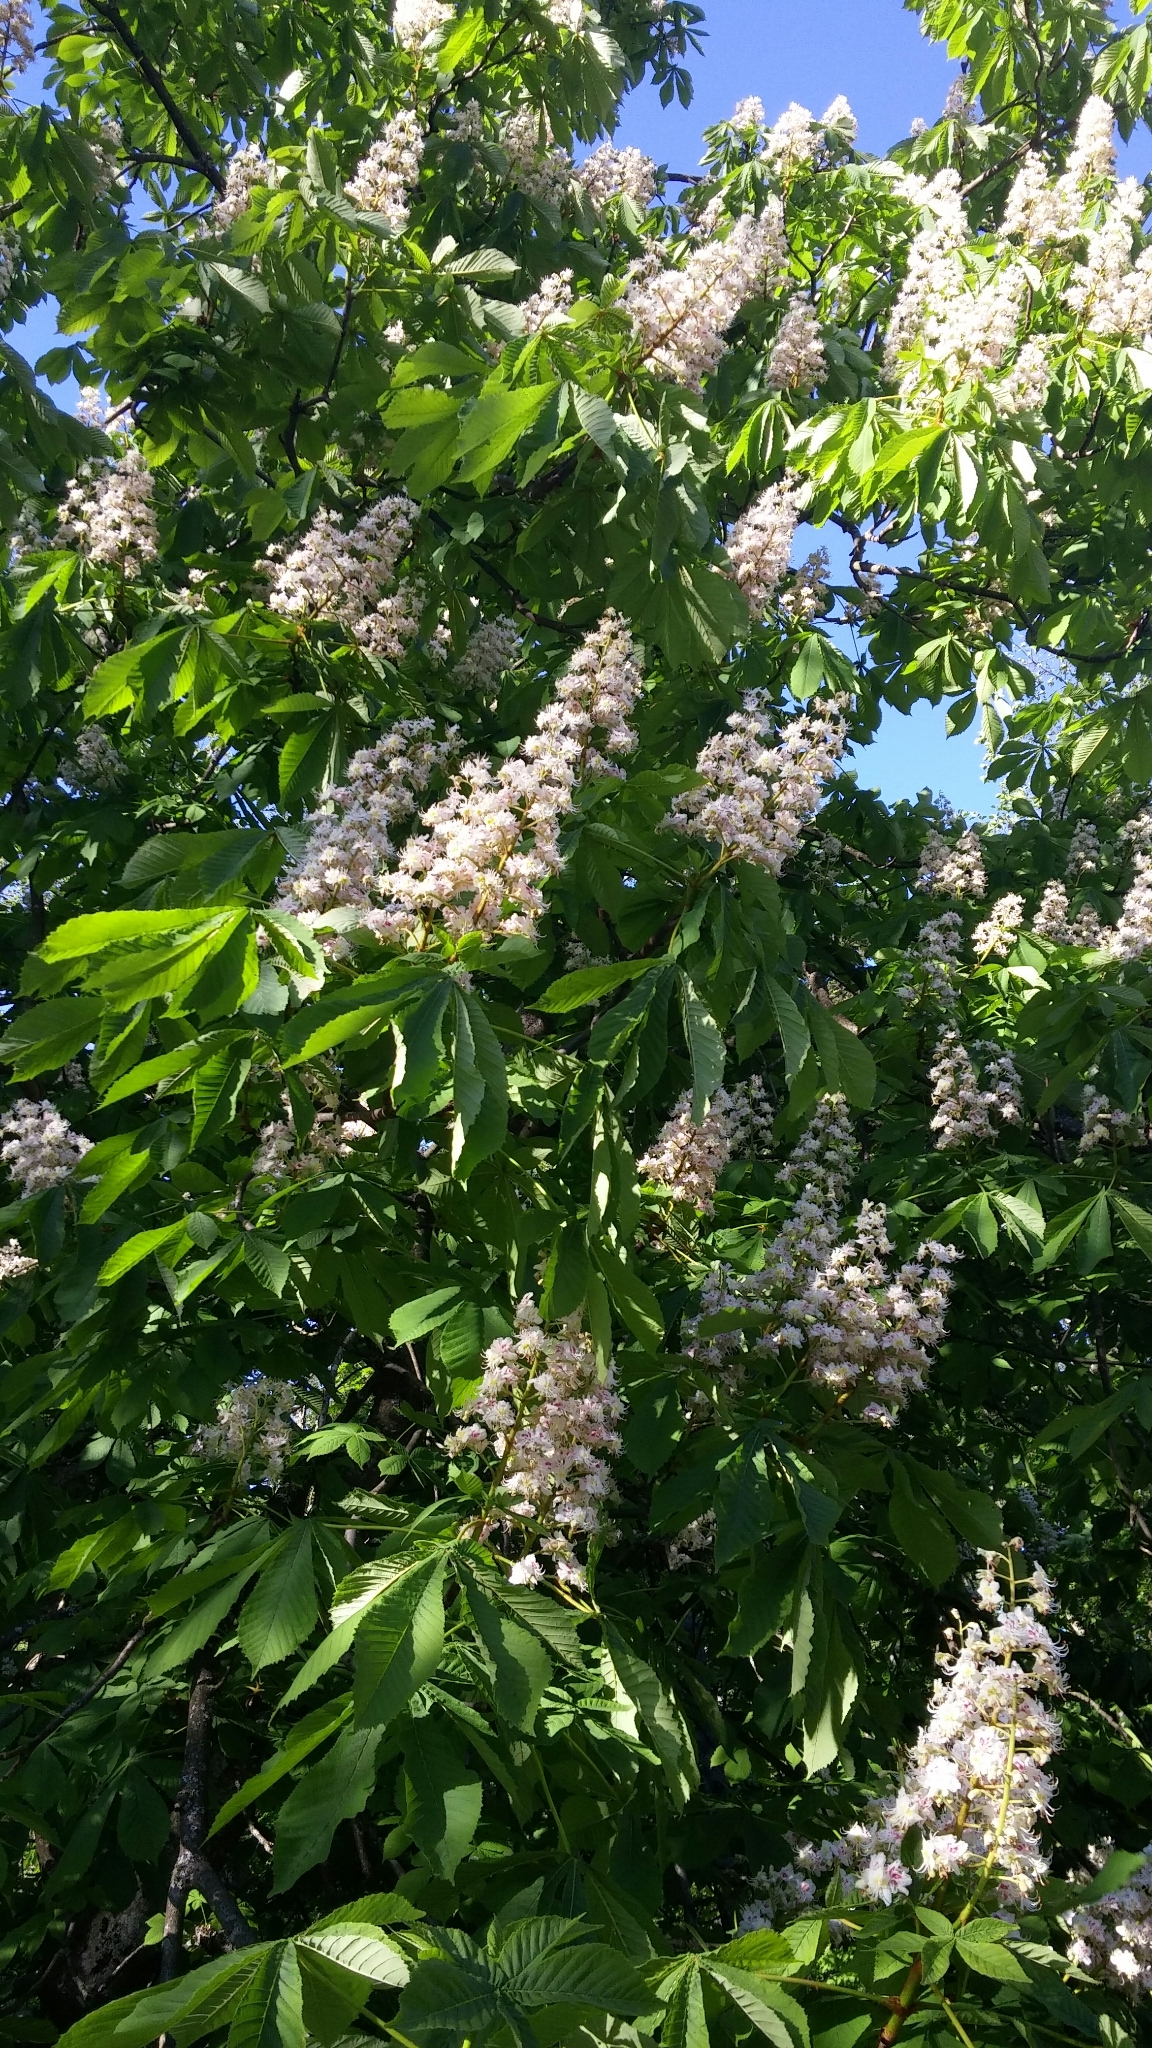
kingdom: Plantae
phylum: Tracheophyta
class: Magnoliopsida
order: Sapindales
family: Sapindaceae
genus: Aesculus
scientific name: Aesculus hippocastanum
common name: Horse-chestnut
